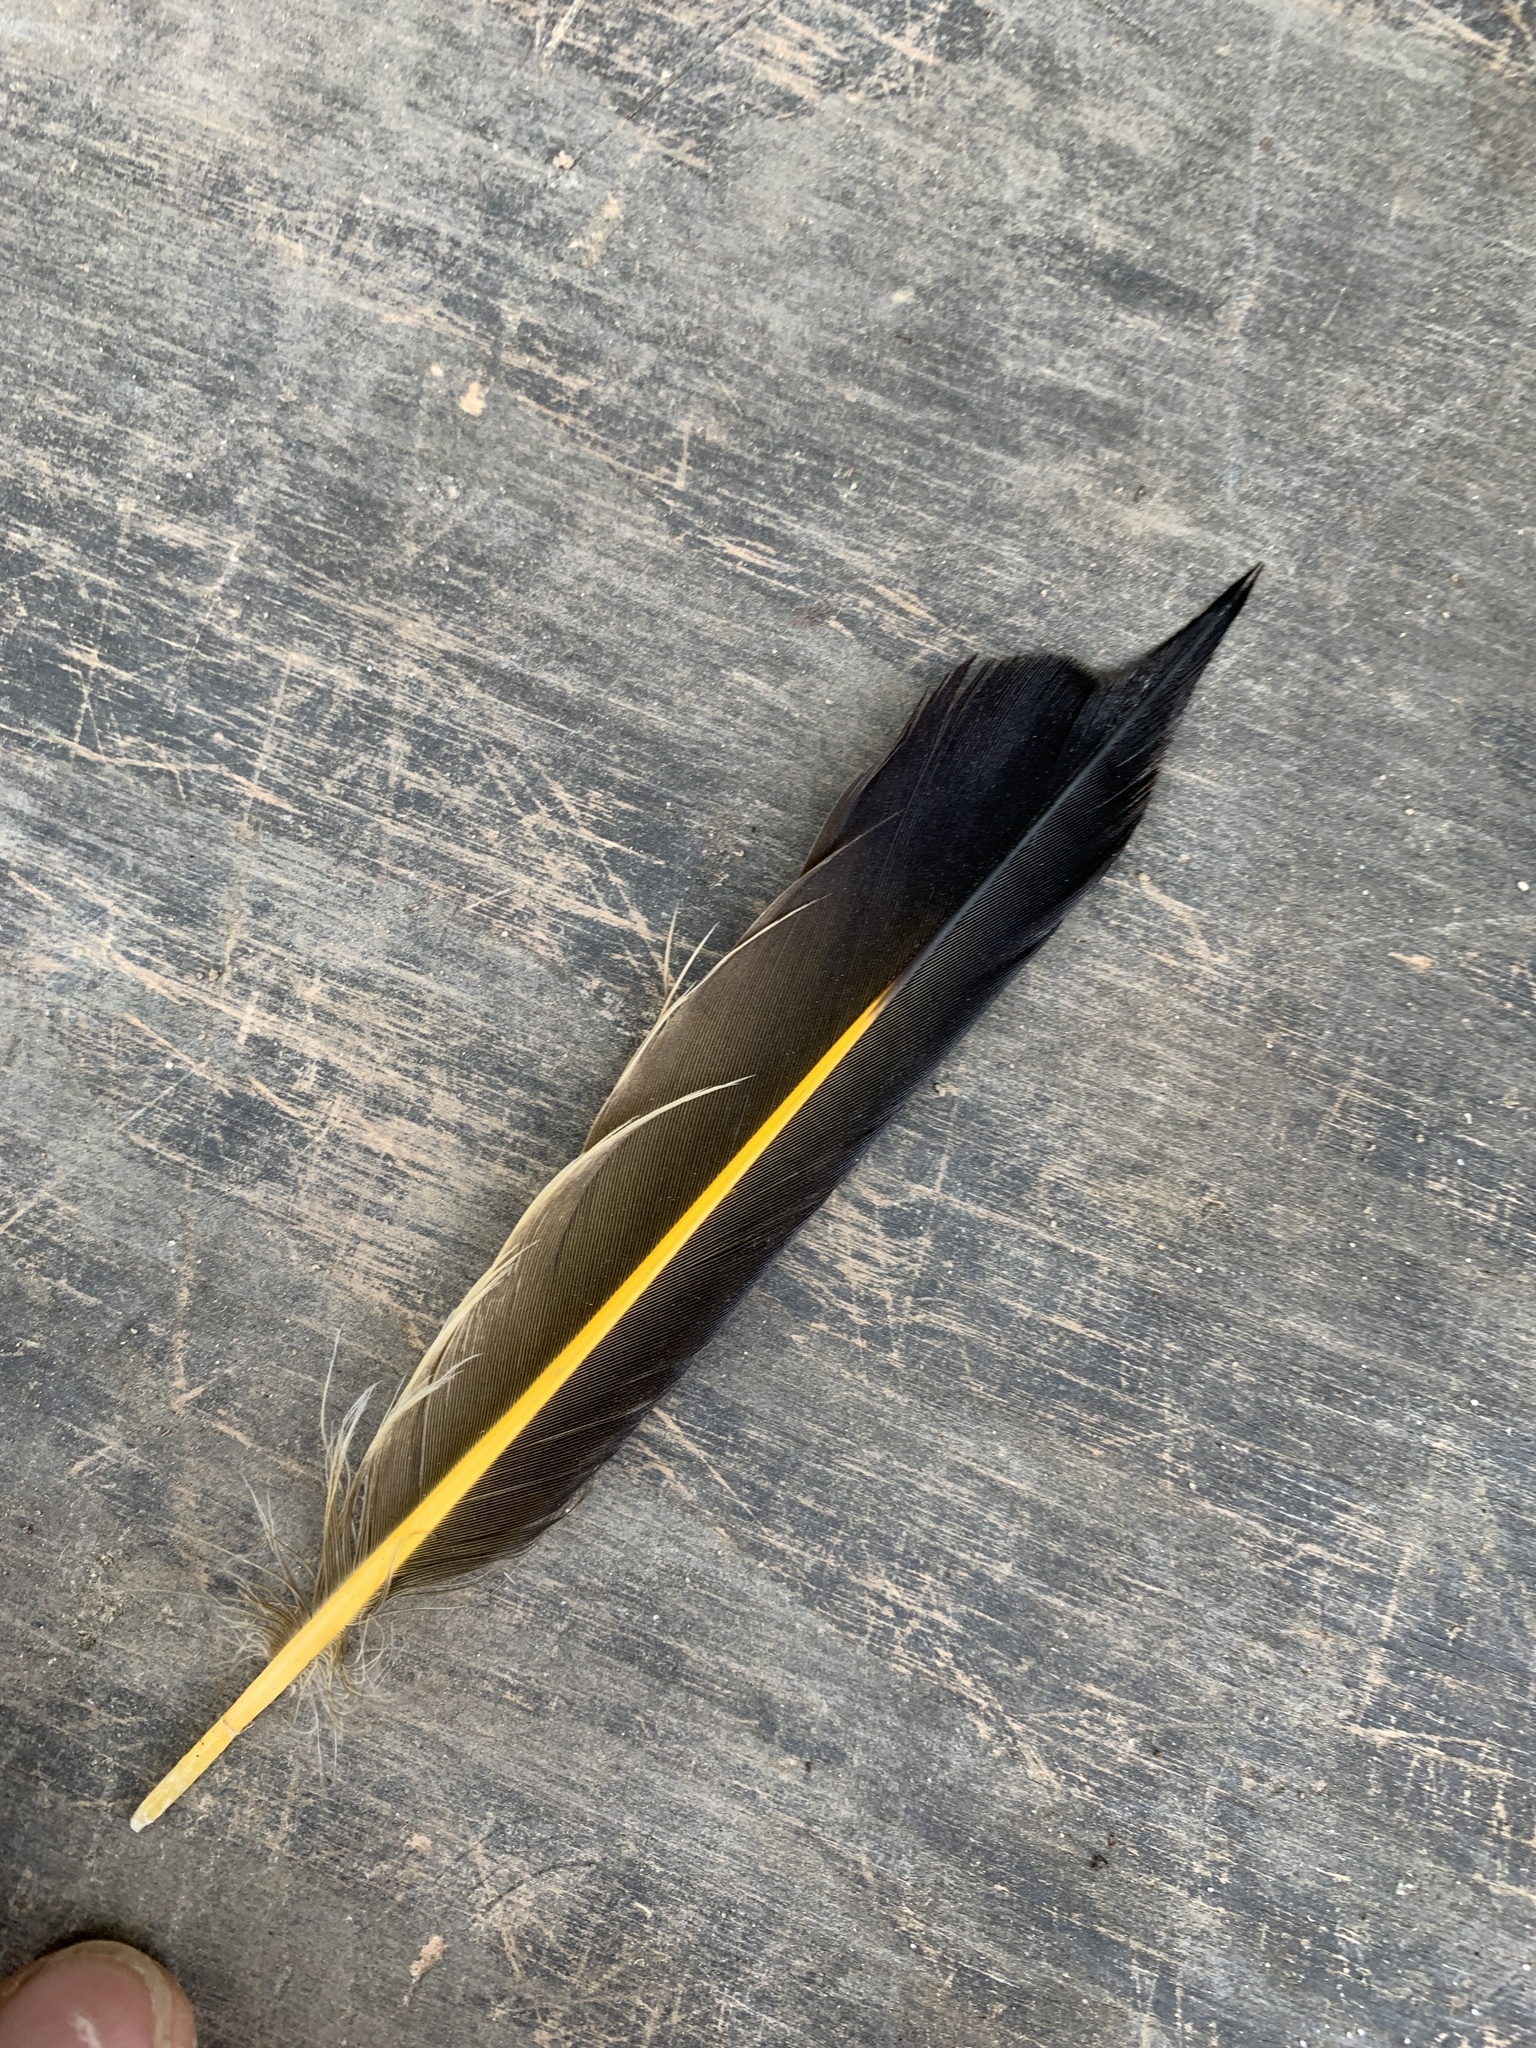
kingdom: Animalia
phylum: Chordata
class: Aves
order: Piciformes
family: Picidae
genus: Colaptes
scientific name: Colaptes auratus
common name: Northern flicker
